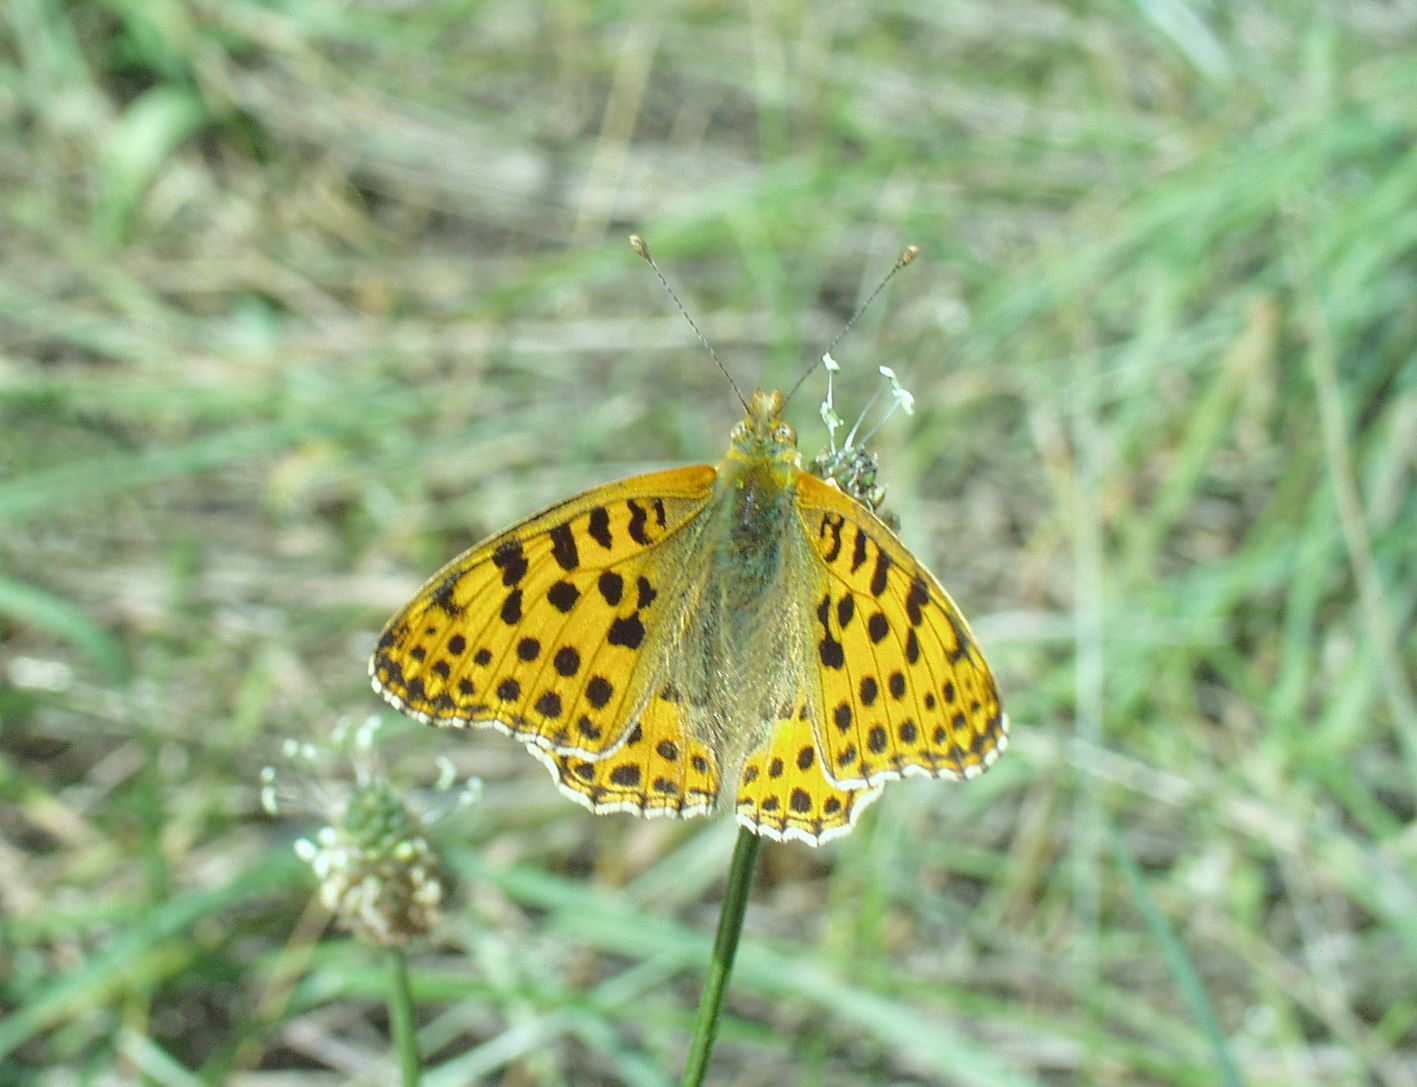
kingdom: Animalia
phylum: Arthropoda
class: Insecta
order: Lepidoptera
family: Nymphalidae
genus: Issoria
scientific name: Issoria lathonia
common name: Queen of spain fritillary
